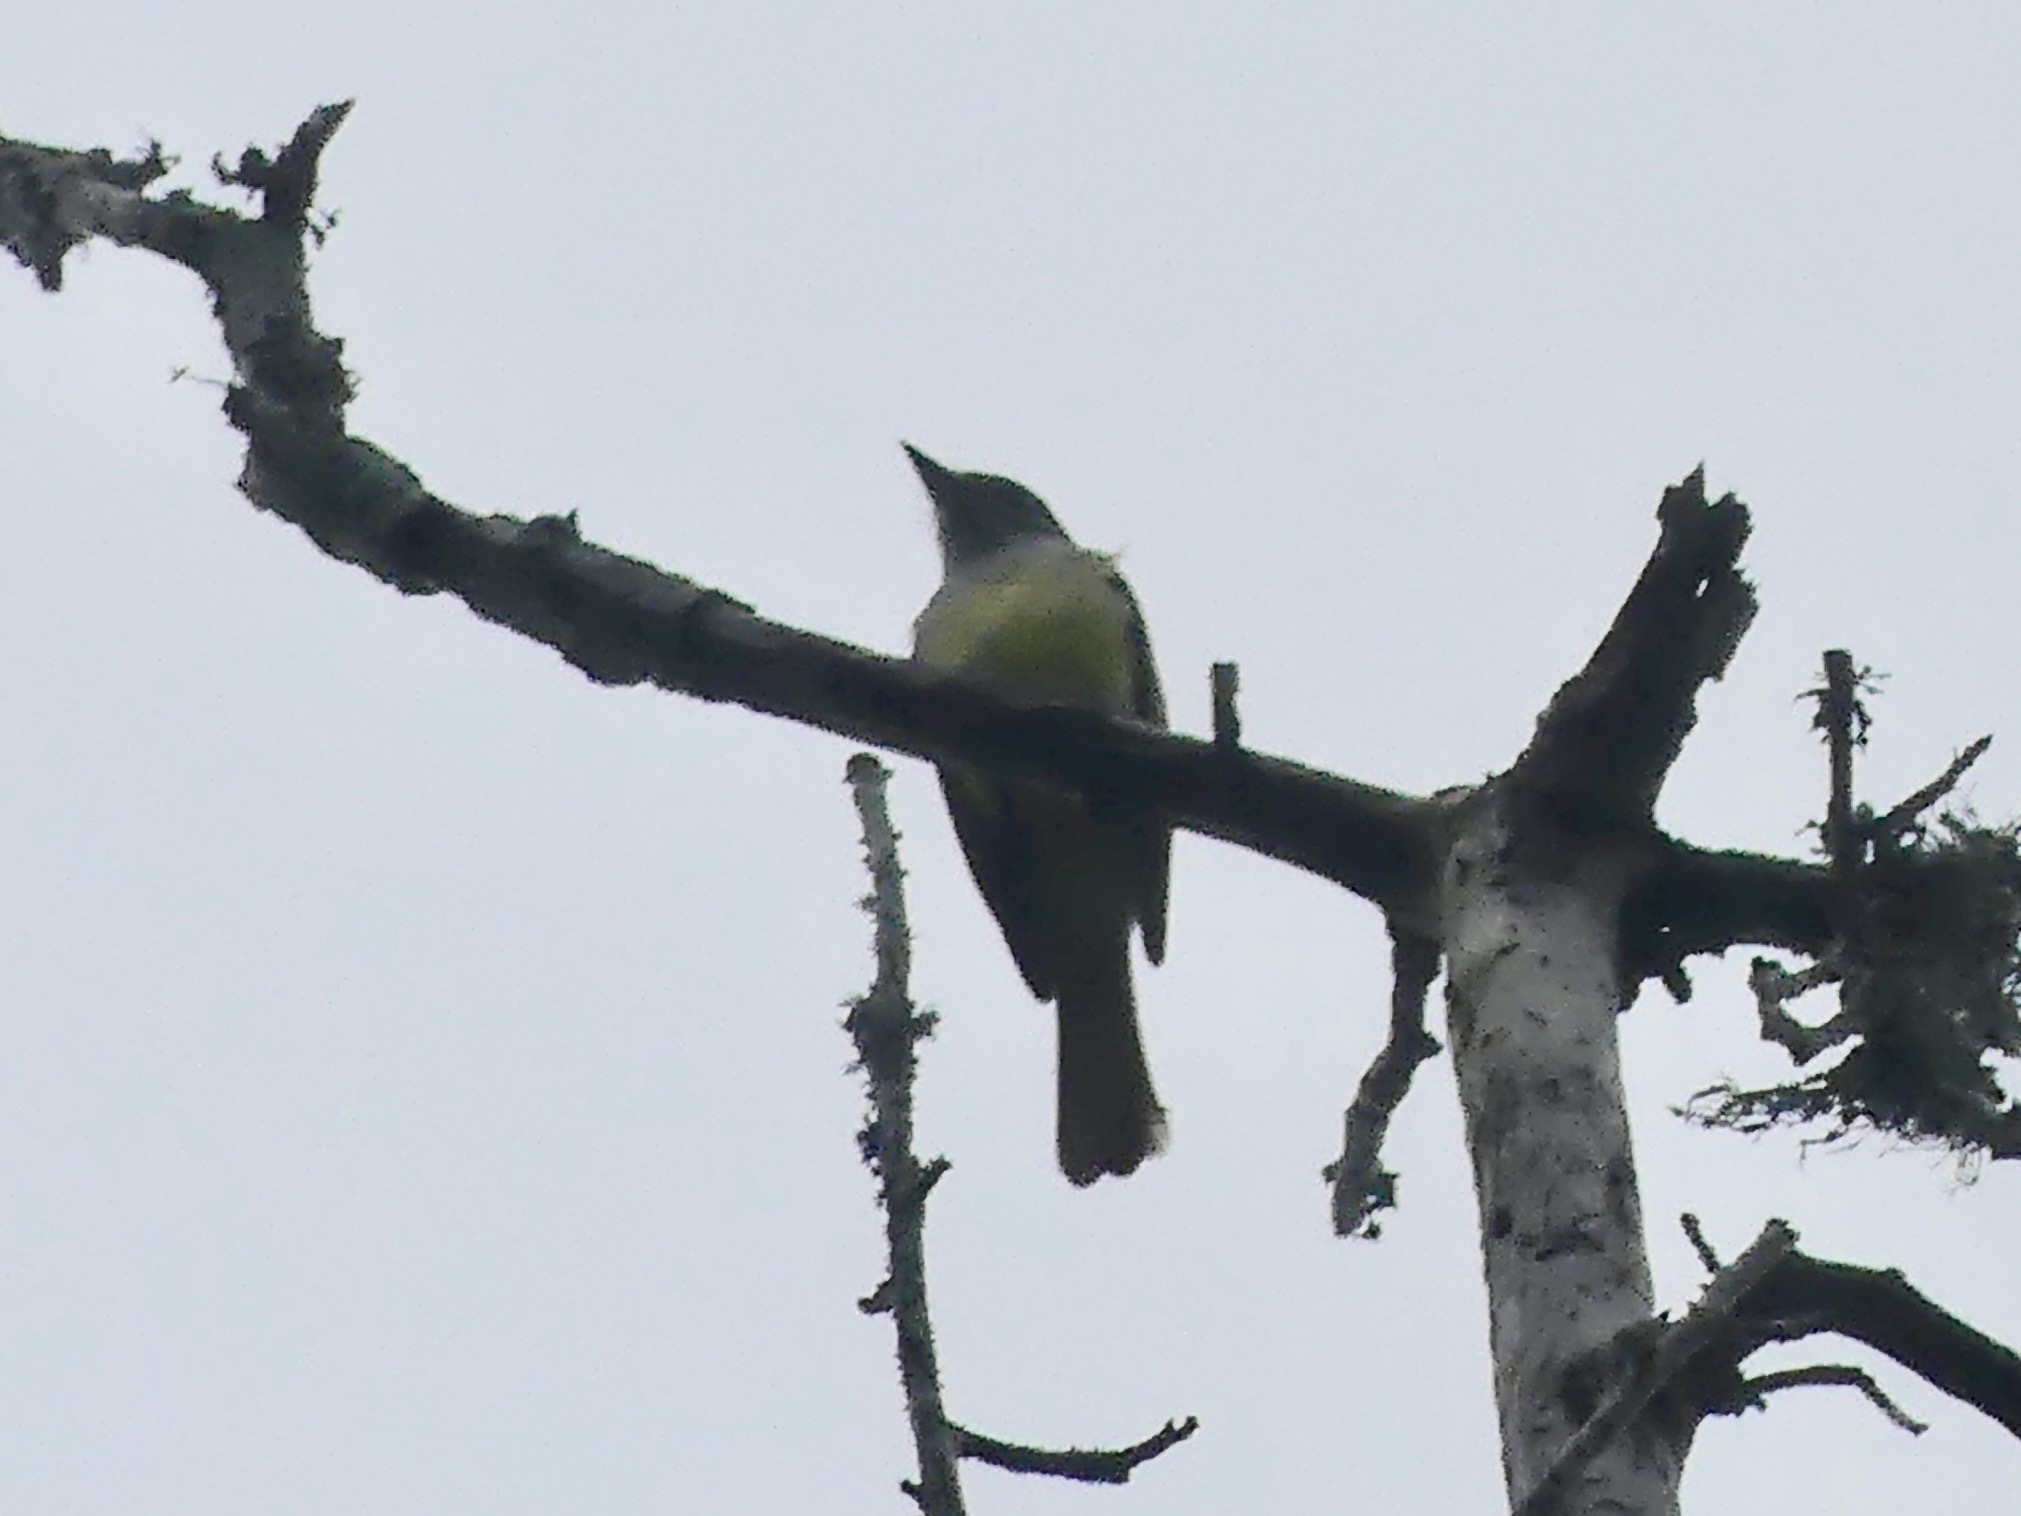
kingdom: Animalia
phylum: Chordata
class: Aves
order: Passeriformes
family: Tyrannidae
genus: Myiarchus
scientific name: Myiarchus crinitus
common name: Great crested flycatcher
